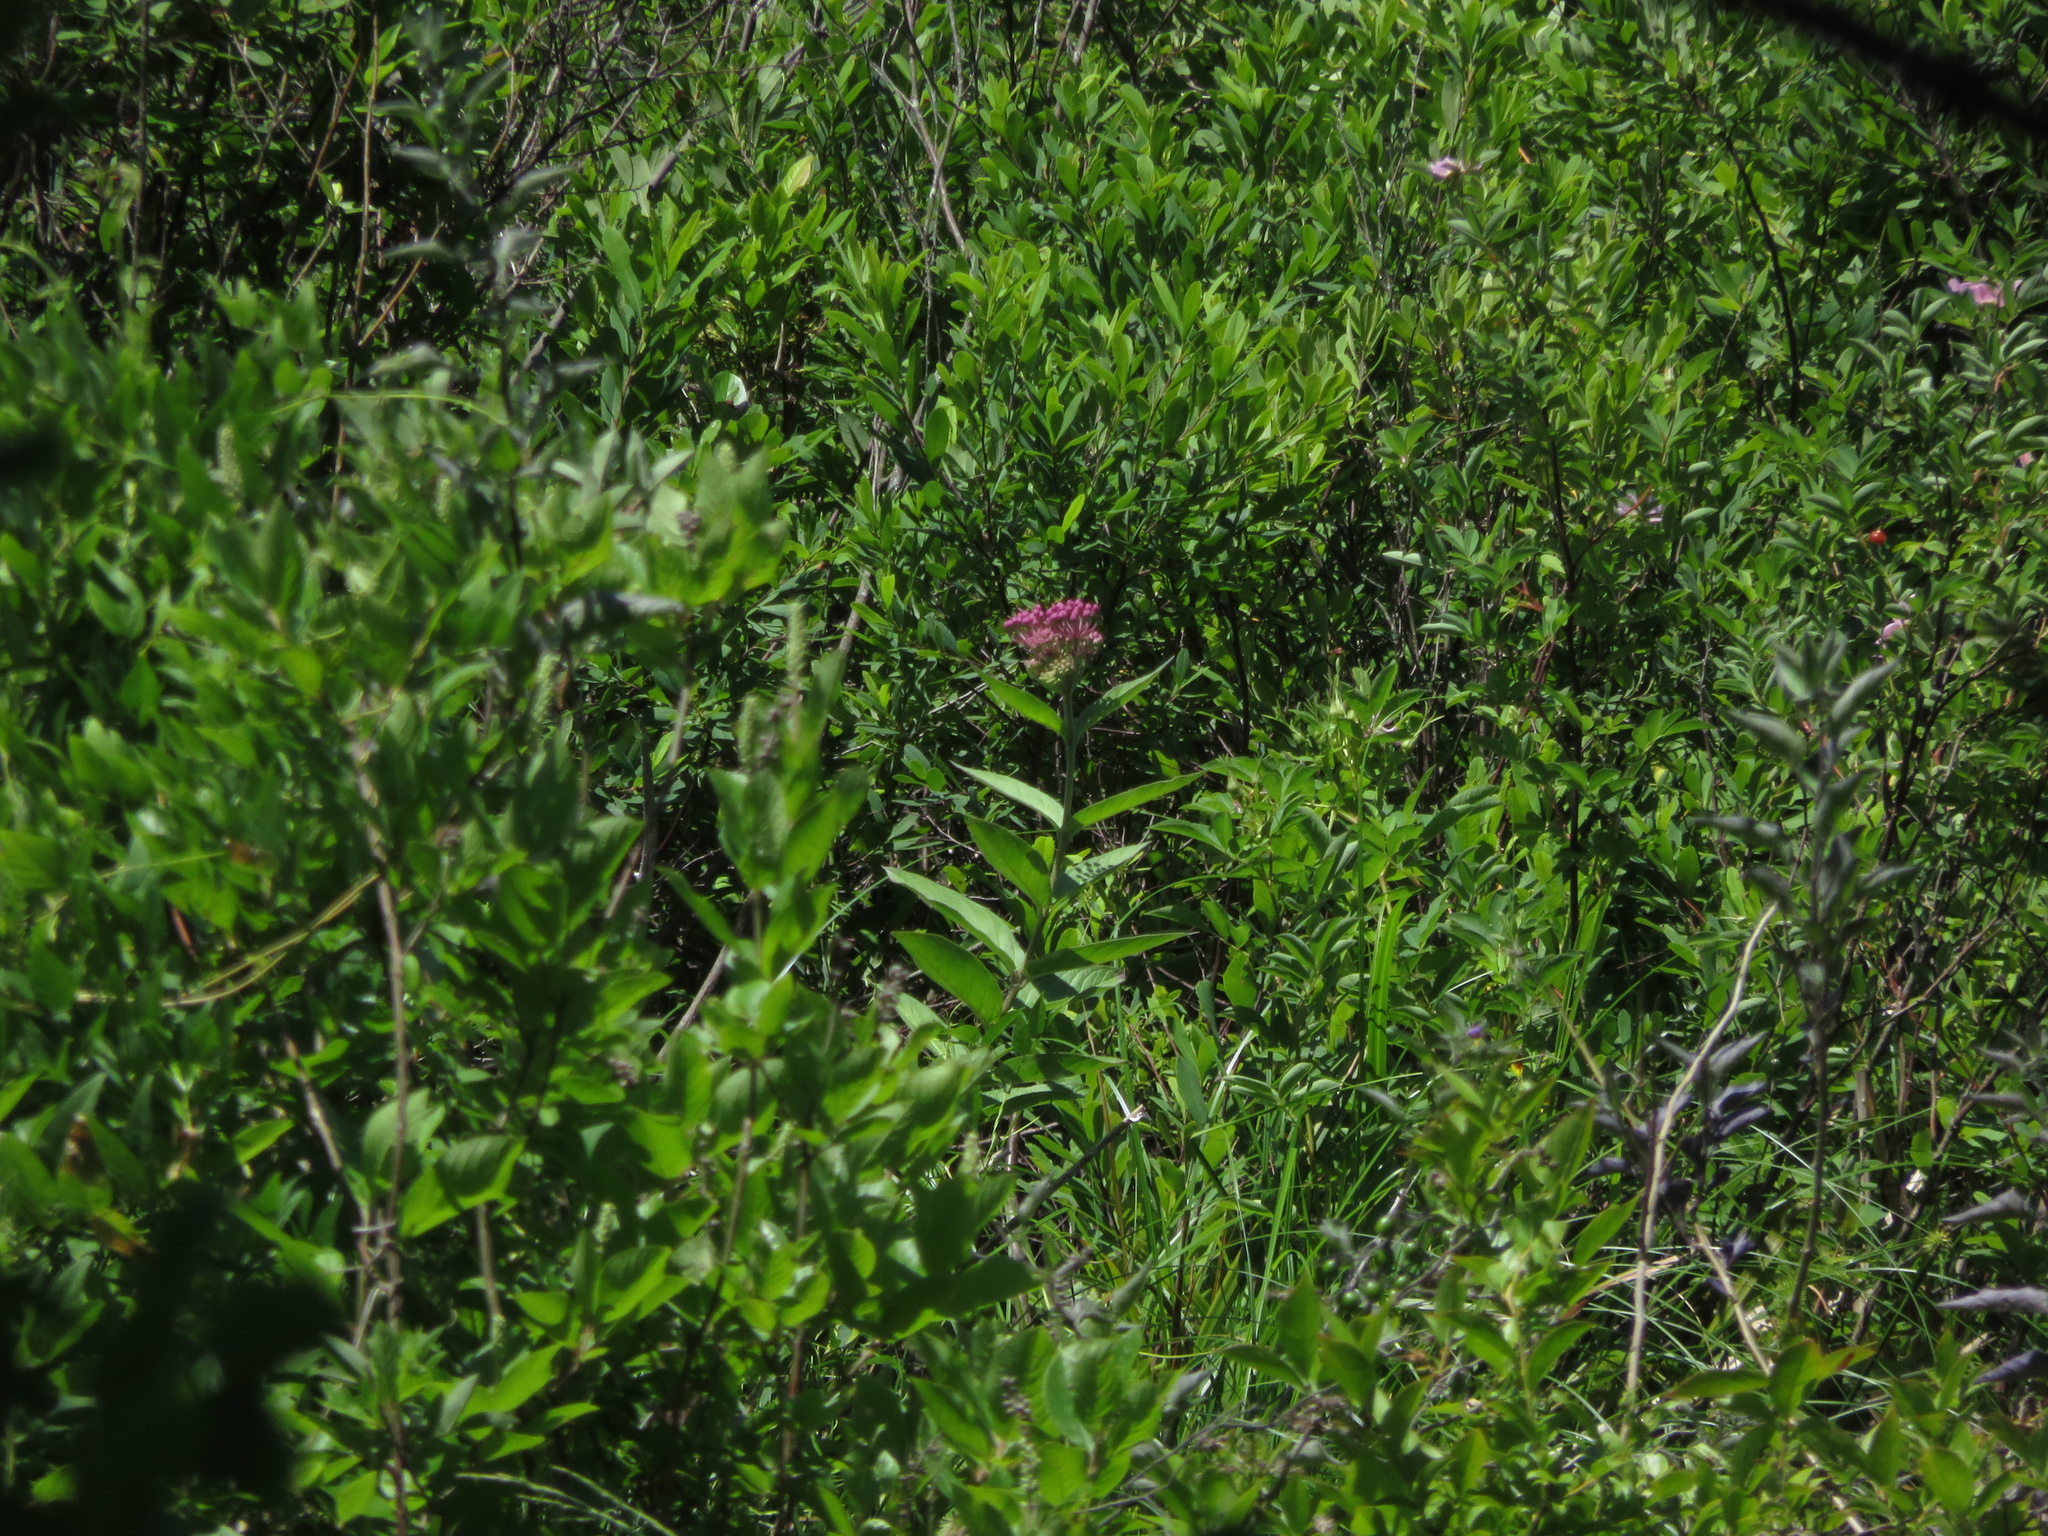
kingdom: Plantae
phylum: Tracheophyta
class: Magnoliopsida
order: Gentianales
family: Apocynaceae
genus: Asclepias
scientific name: Asclepias incarnata
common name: Swamp milkweed
